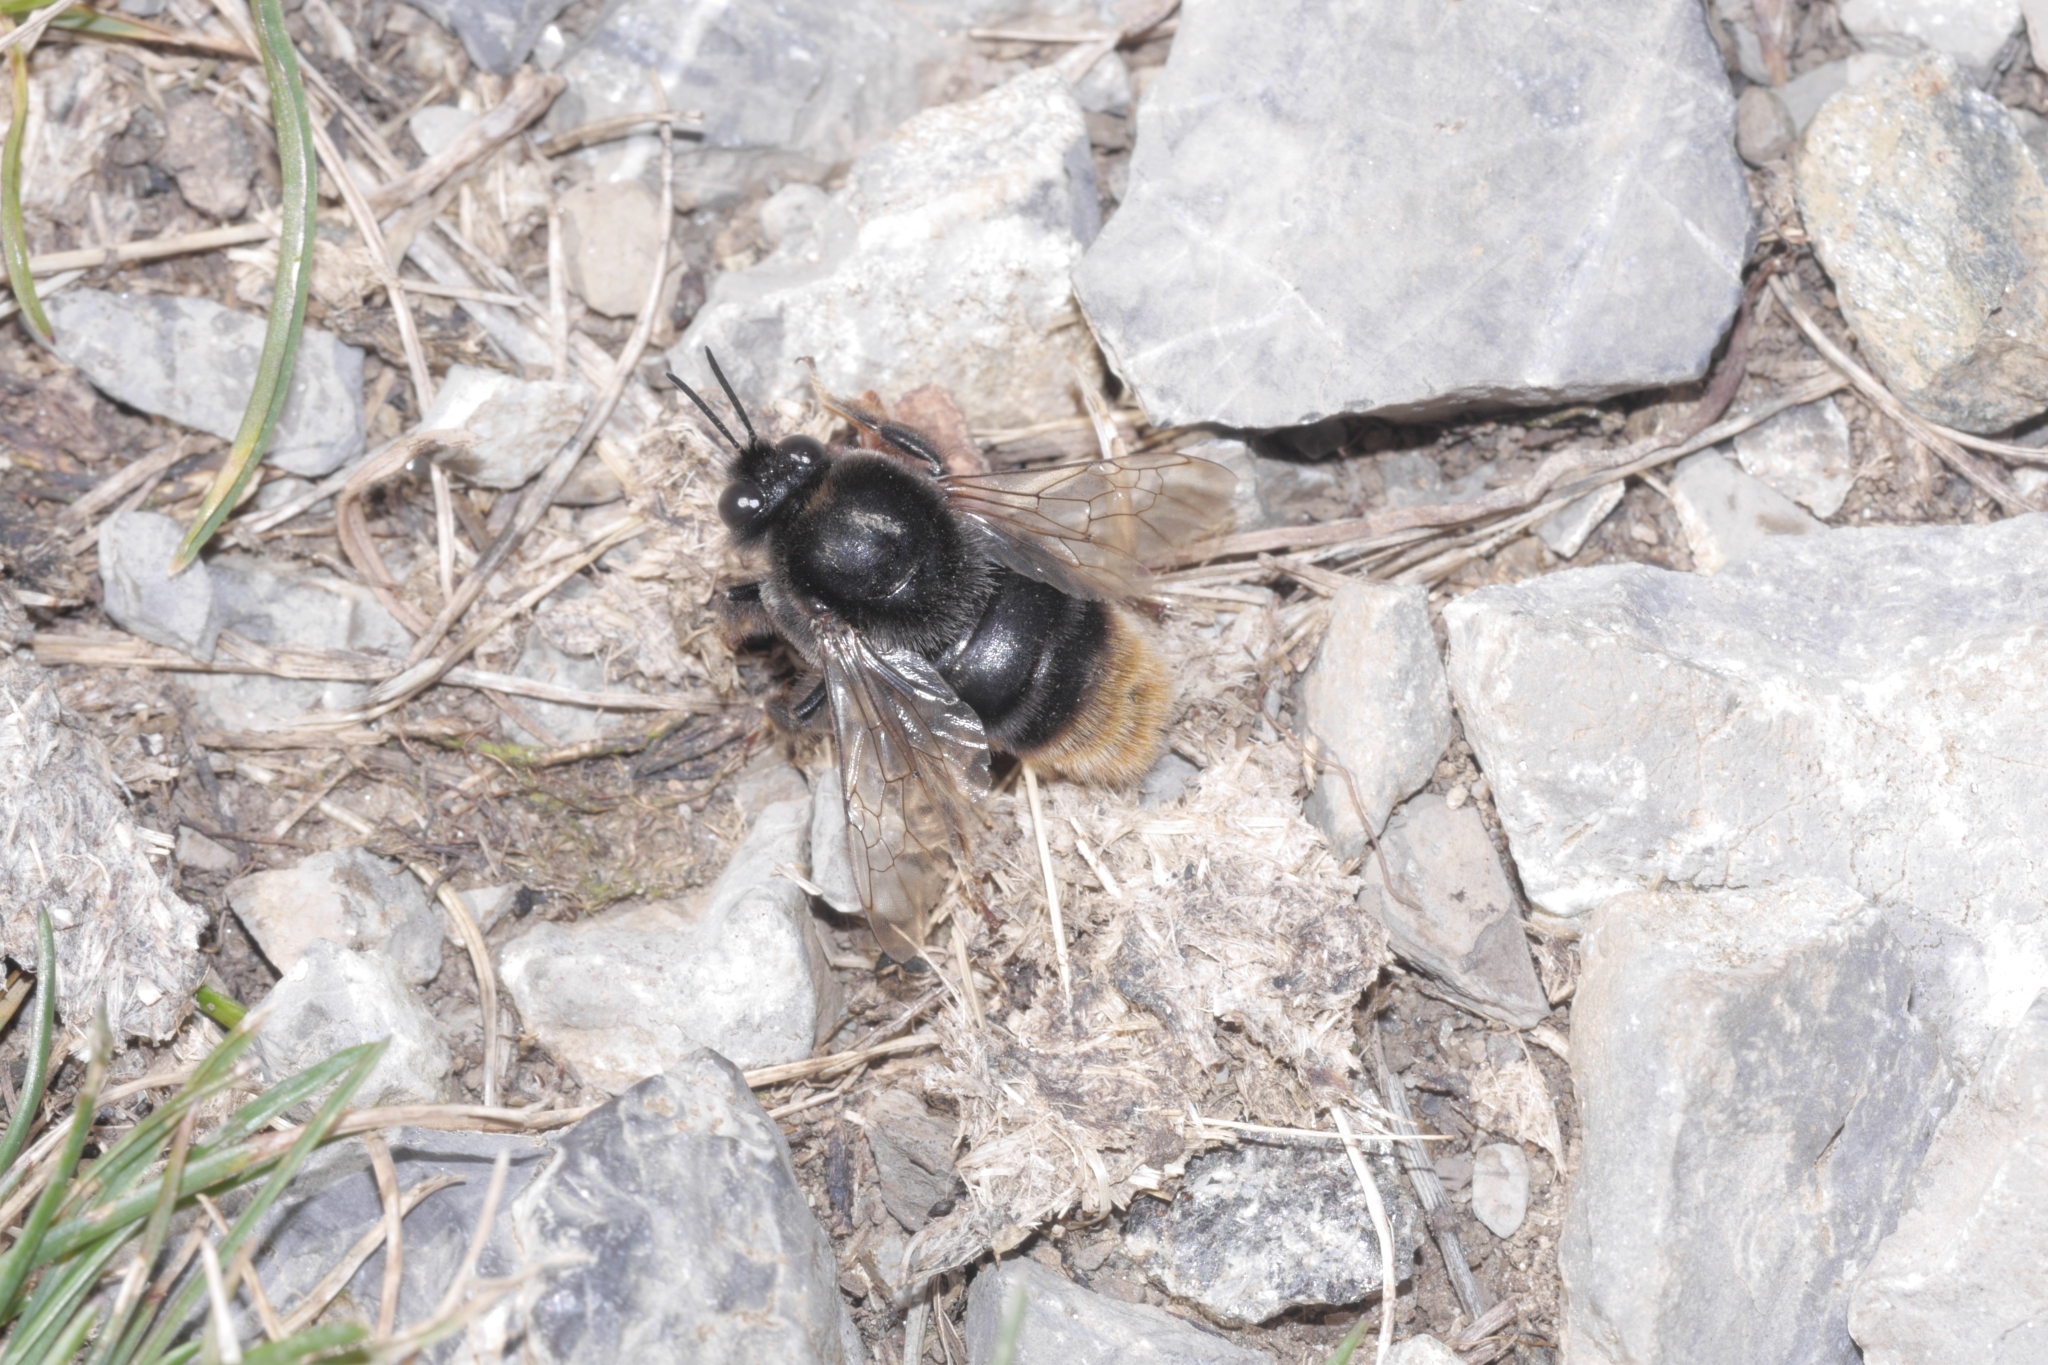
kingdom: Animalia
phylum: Arthropoda
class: Insecta
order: Hymenoptera
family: Apidae
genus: Bombus
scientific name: Bombus confusus
